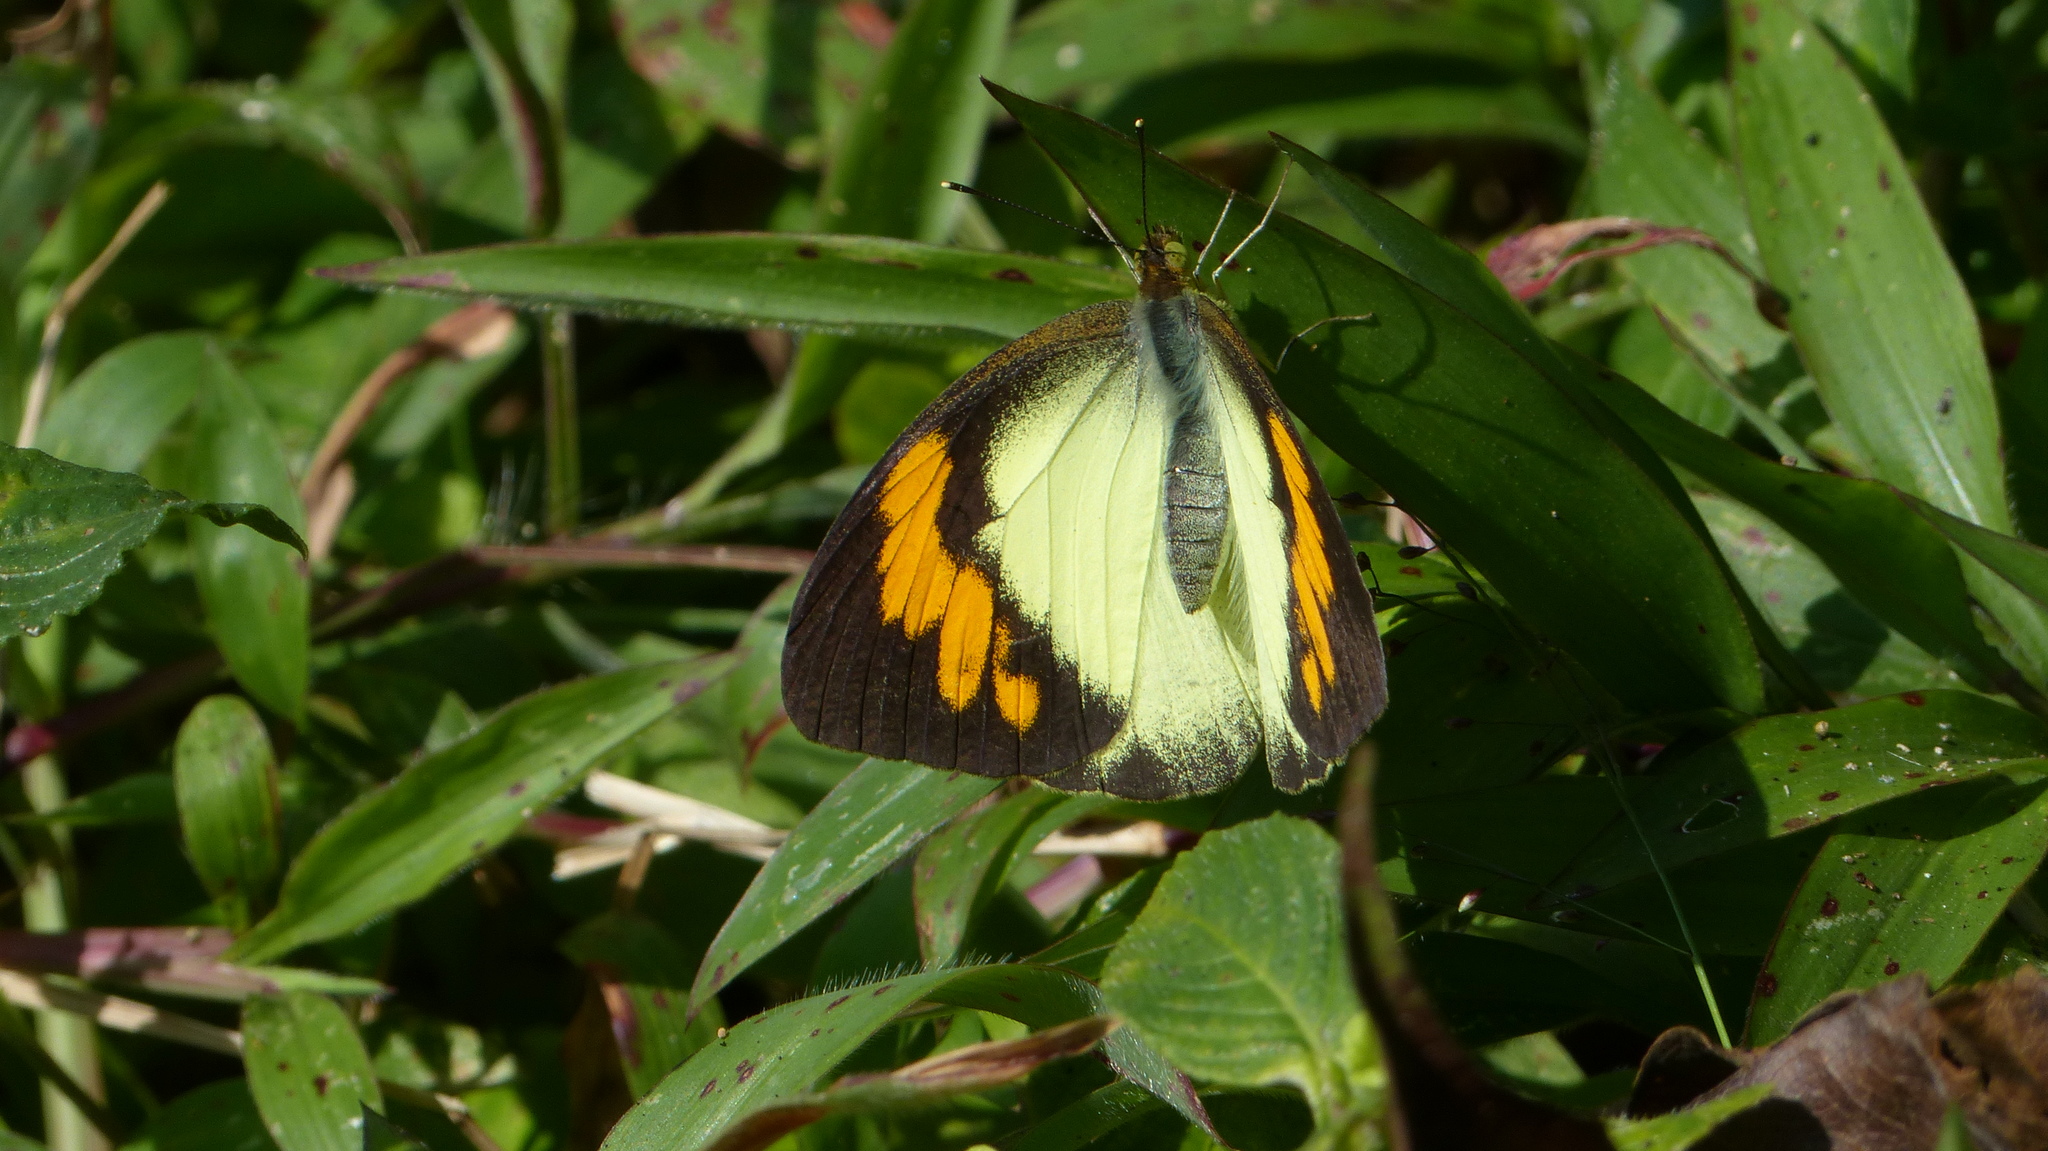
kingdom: Animalia
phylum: Arthropoda
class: Insecta
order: Lepidoptera
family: Pieridae
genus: Ixias
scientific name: Ixias pyrene
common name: Yellow orange tip
